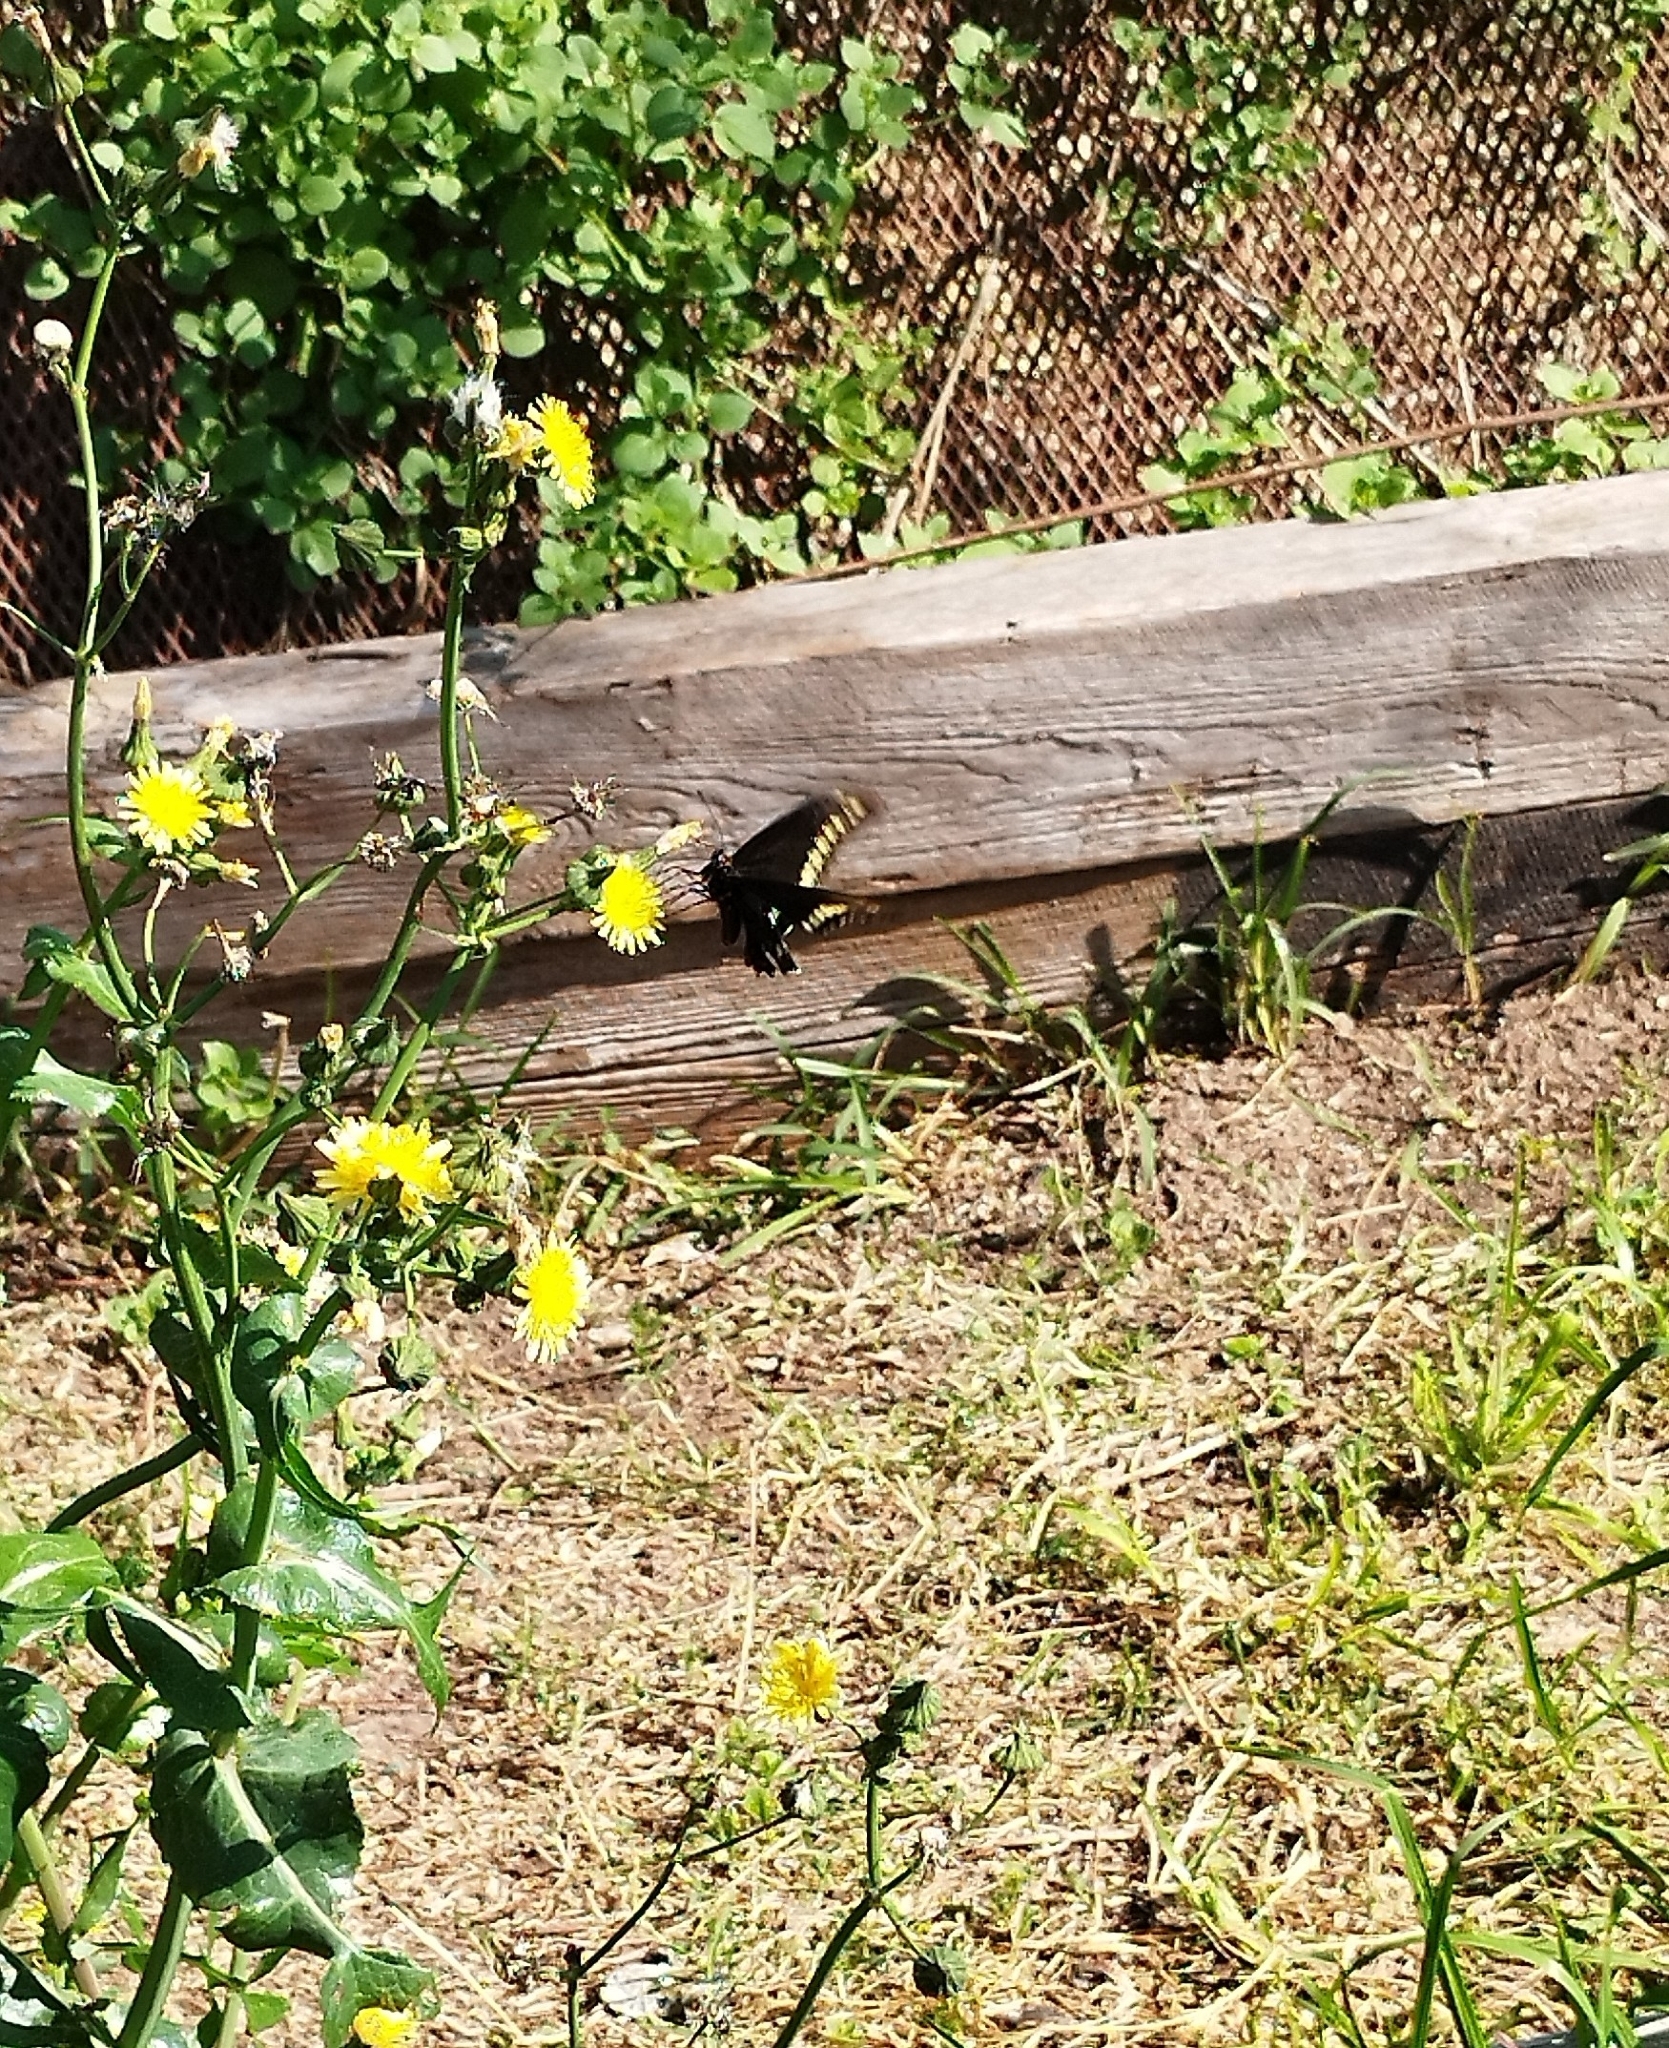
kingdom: Animalia
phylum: Arthropoda
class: Insecta
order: Lepidoptera
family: Papilionidae
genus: Battus
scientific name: Battus polydamas
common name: Polydamas swallowtail
